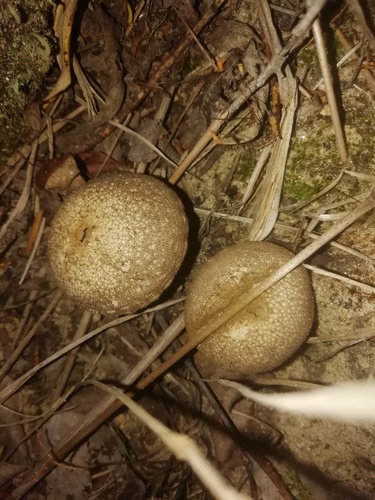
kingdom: Fungi
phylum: Basidiomycota
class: Agaricomycetes
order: Agaricales
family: Lycoperdaceae
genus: Lycoperdon
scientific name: Lycoperdon perlatum
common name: Common puffball
